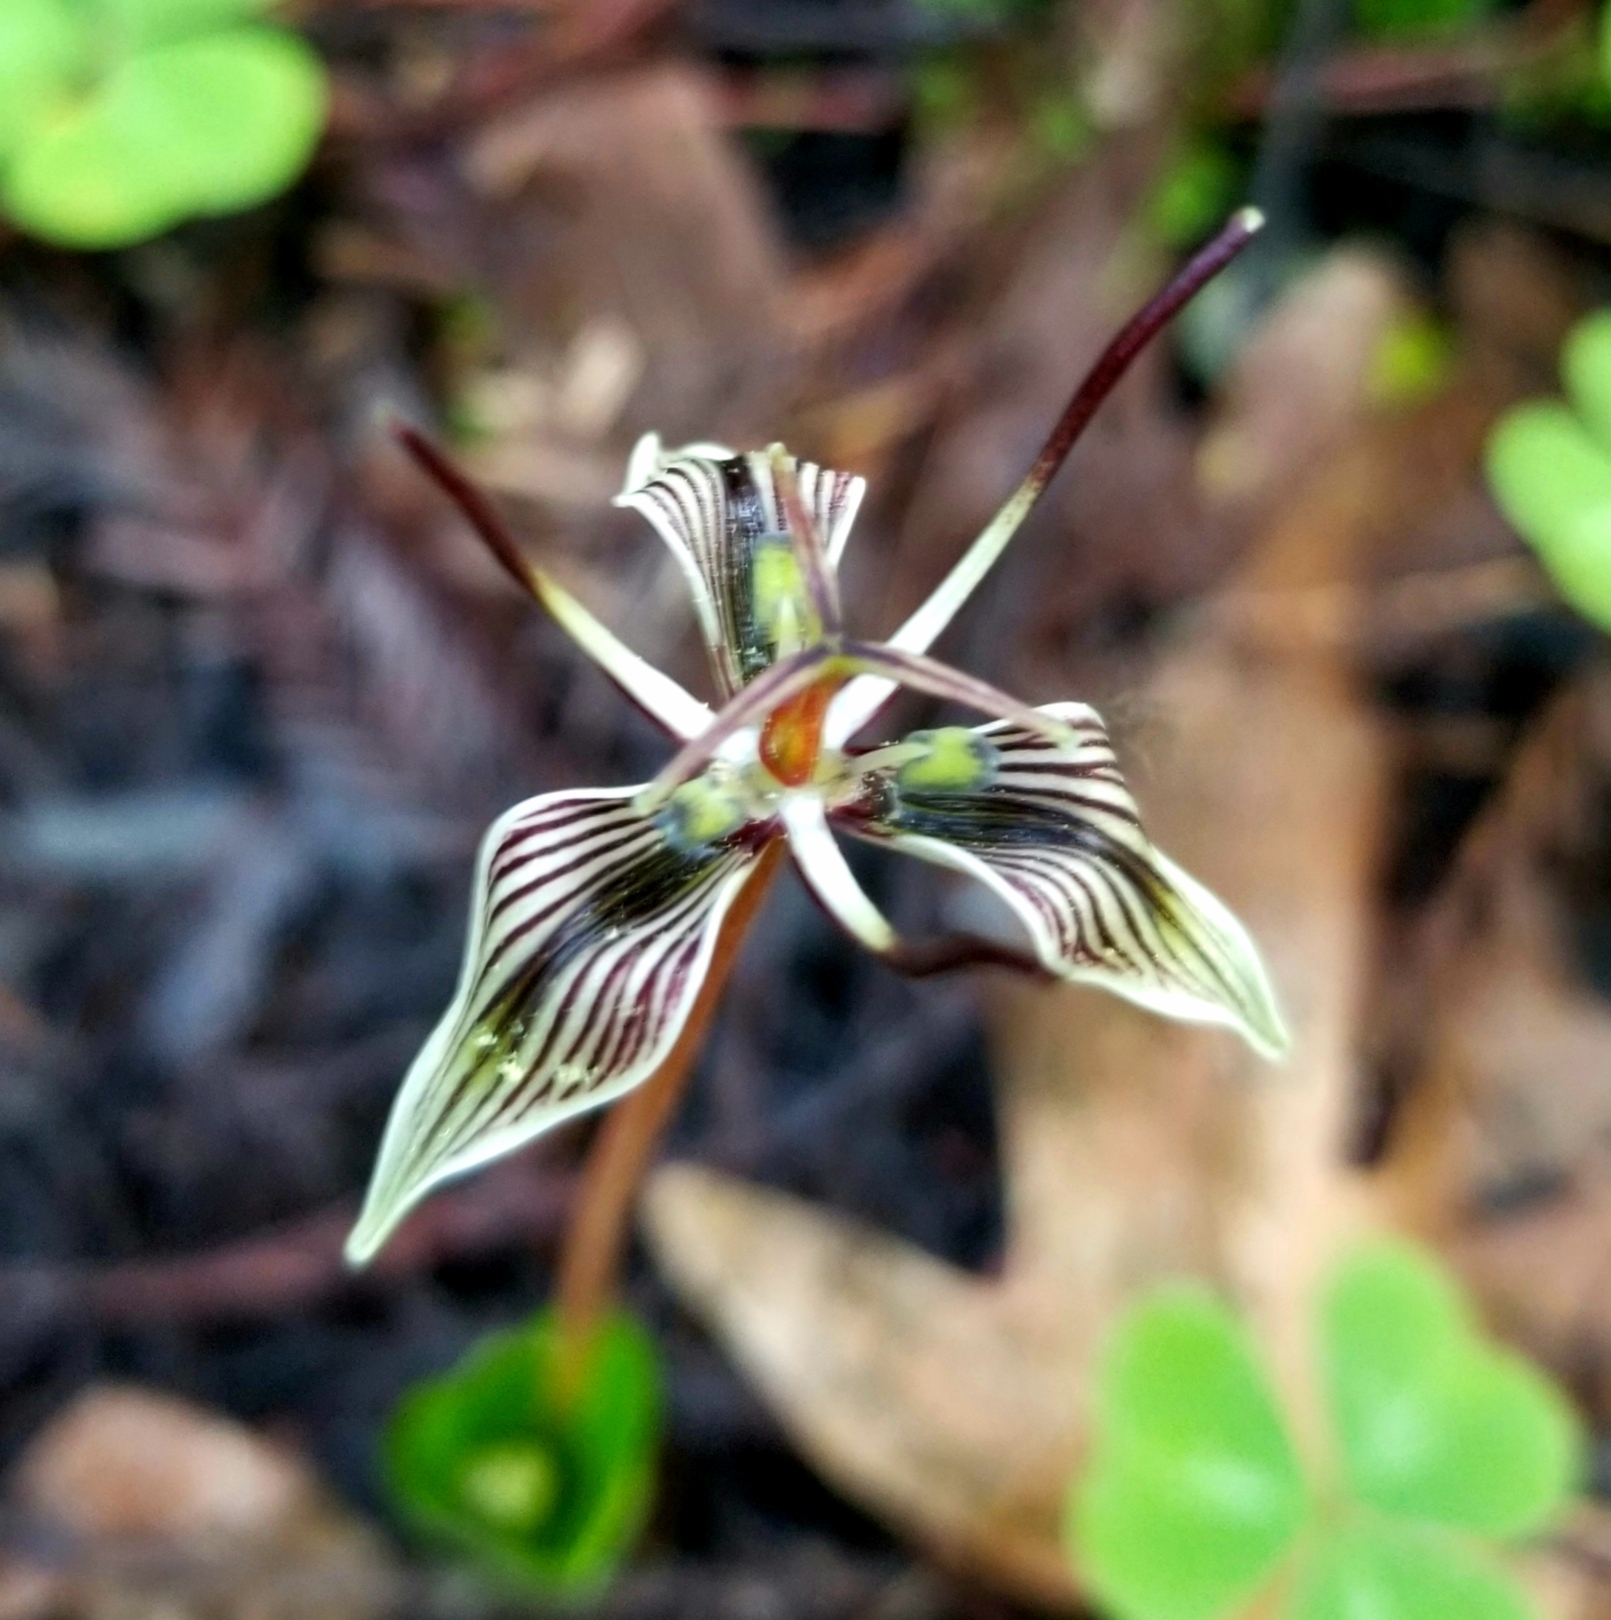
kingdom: Plantae
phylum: Tracheophyta
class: Liliopsida
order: Liliales
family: Liliaceae
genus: Scoliopus
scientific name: Scoliopus bigelovii
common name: Foetid adder's-tongue
